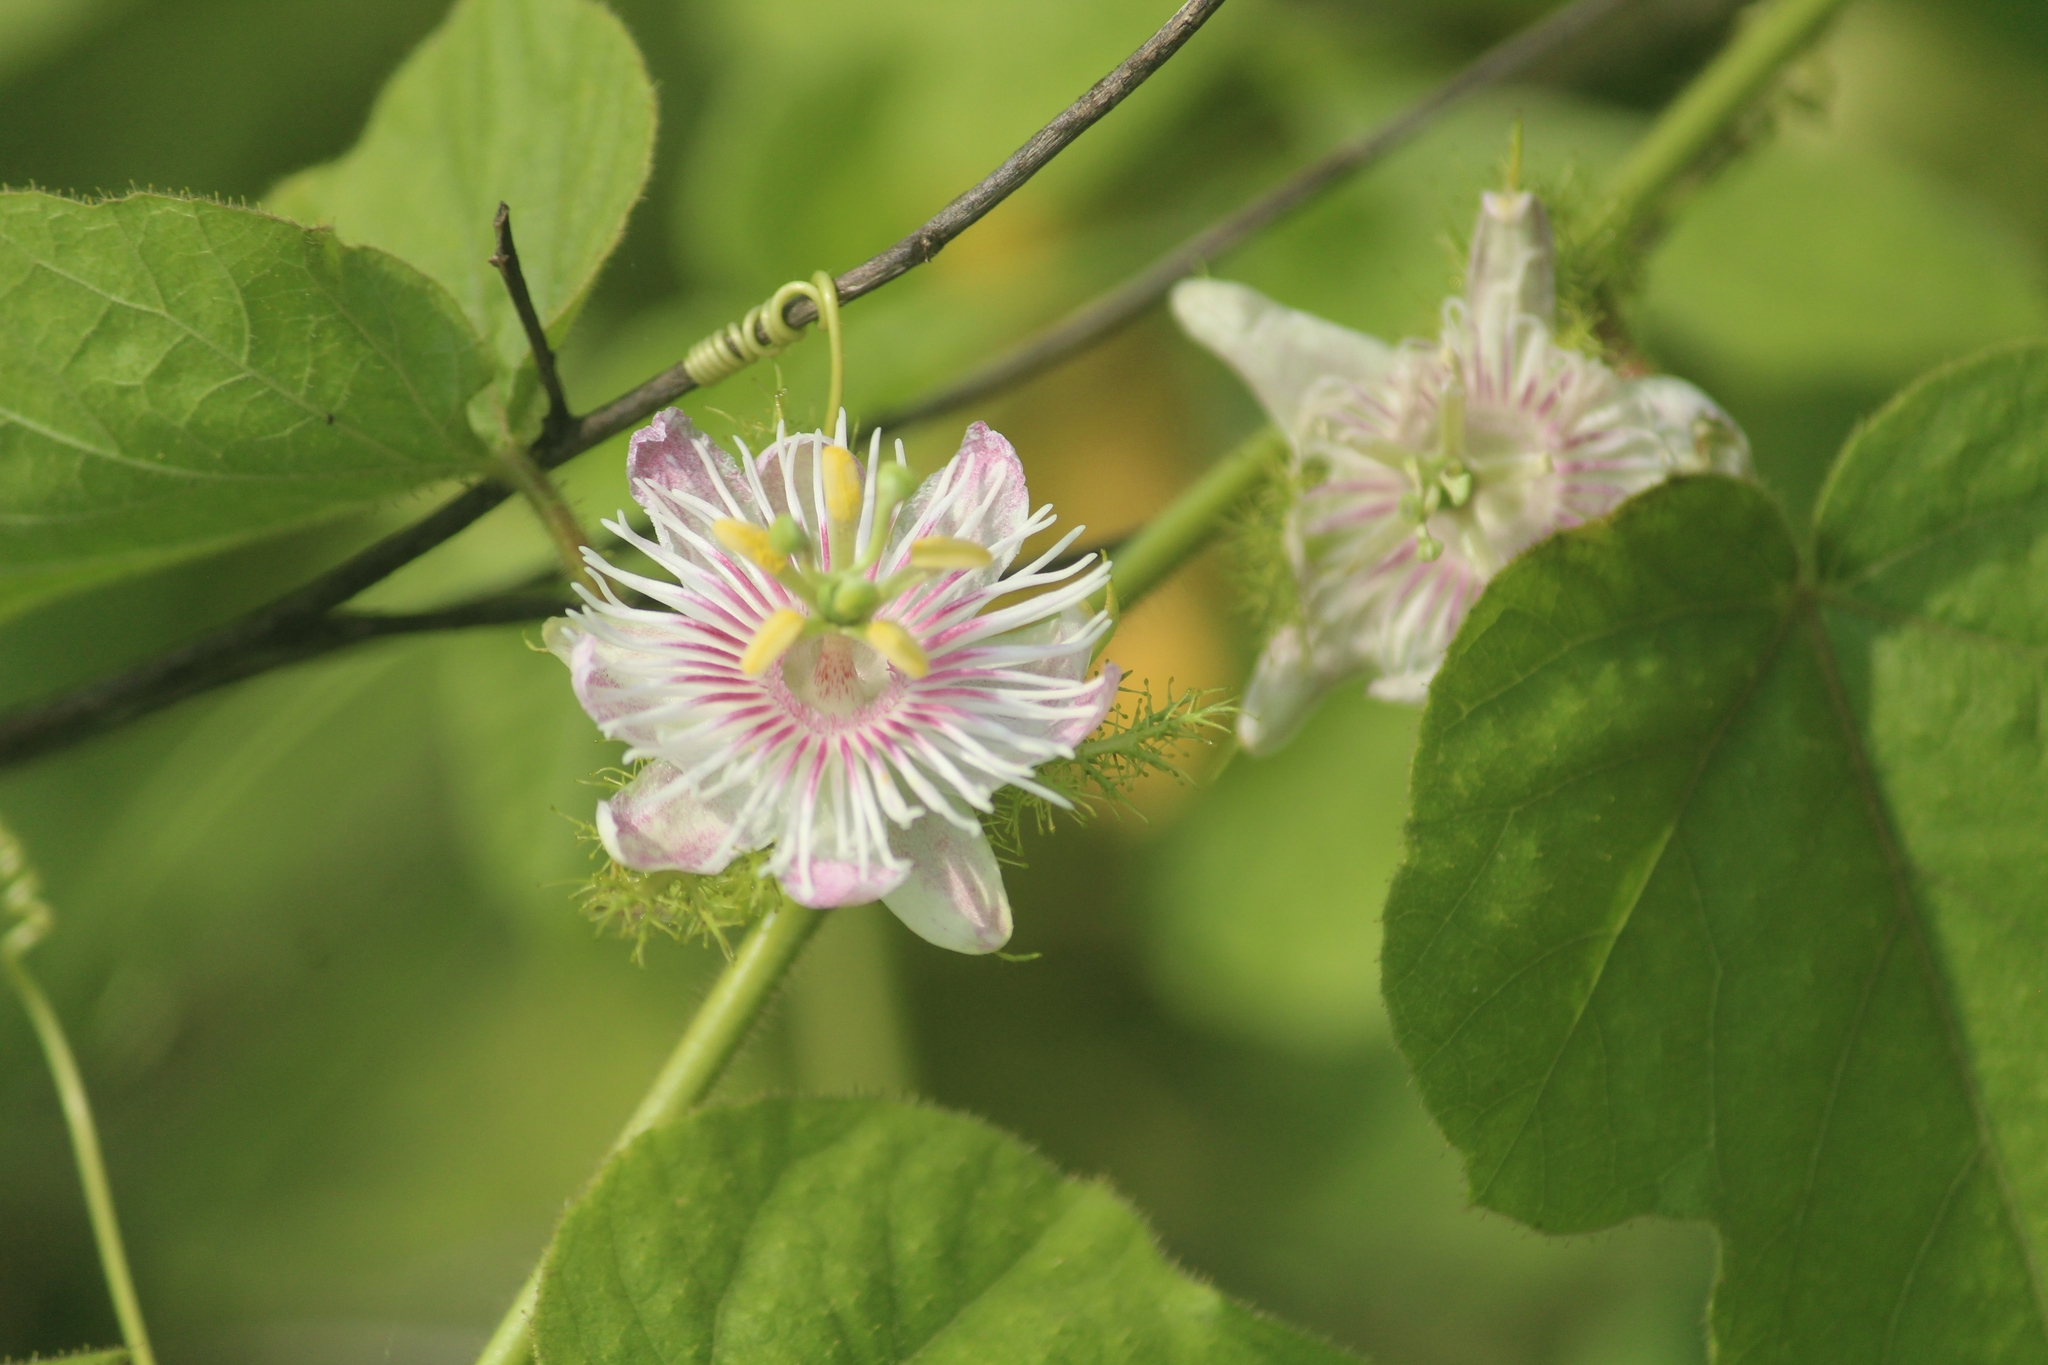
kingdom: Plantae
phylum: Tracheophyta
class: Magnoliopsida
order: Malpighiales
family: Passifloraceae
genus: Passiflora
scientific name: Passiflora foetida
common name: Fetid passionflower
